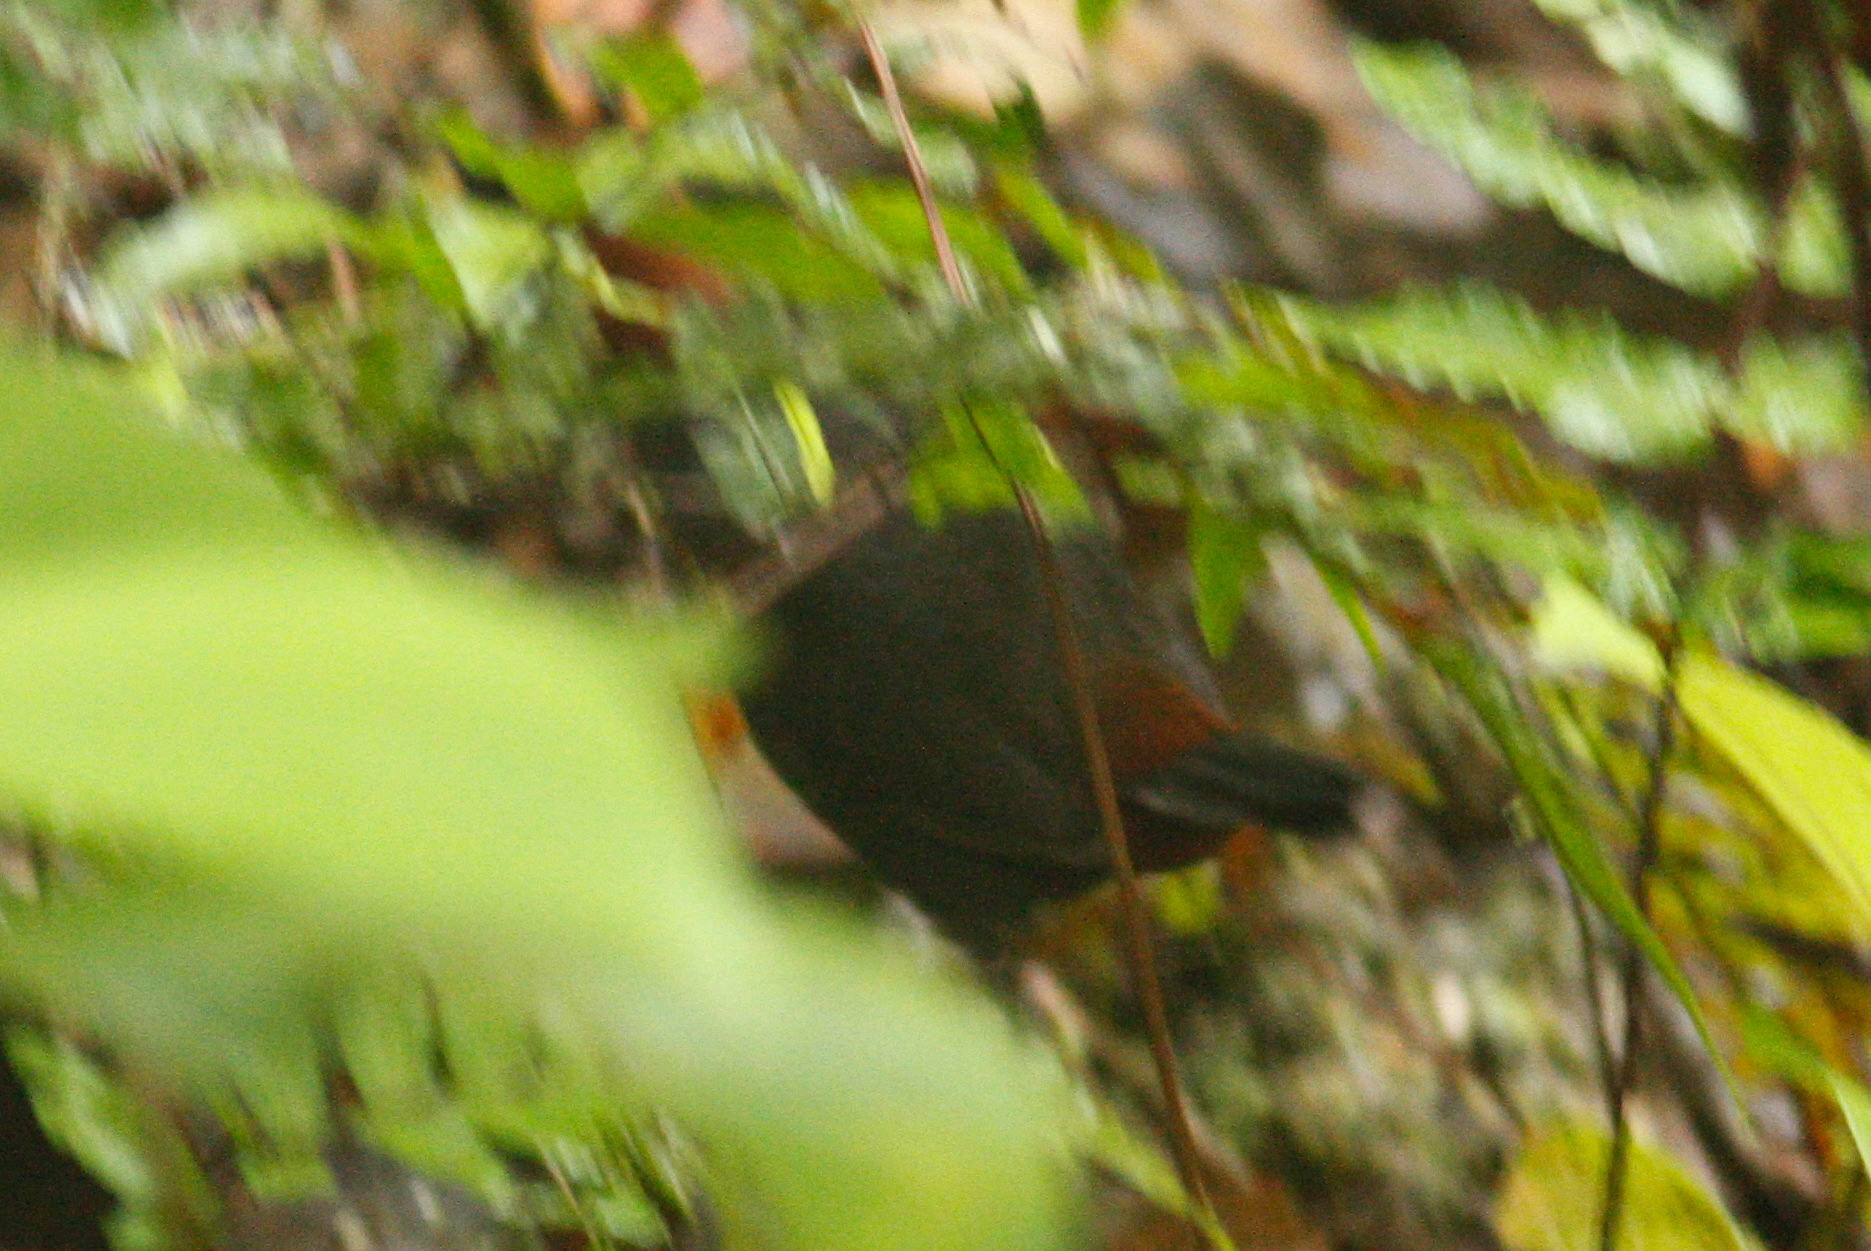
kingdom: Animalia
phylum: Chordata
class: Aves
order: Passeriformes
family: Formicariidae
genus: Formicarius
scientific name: Formicarius rufipectus
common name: Rufous-breasted antthrush
